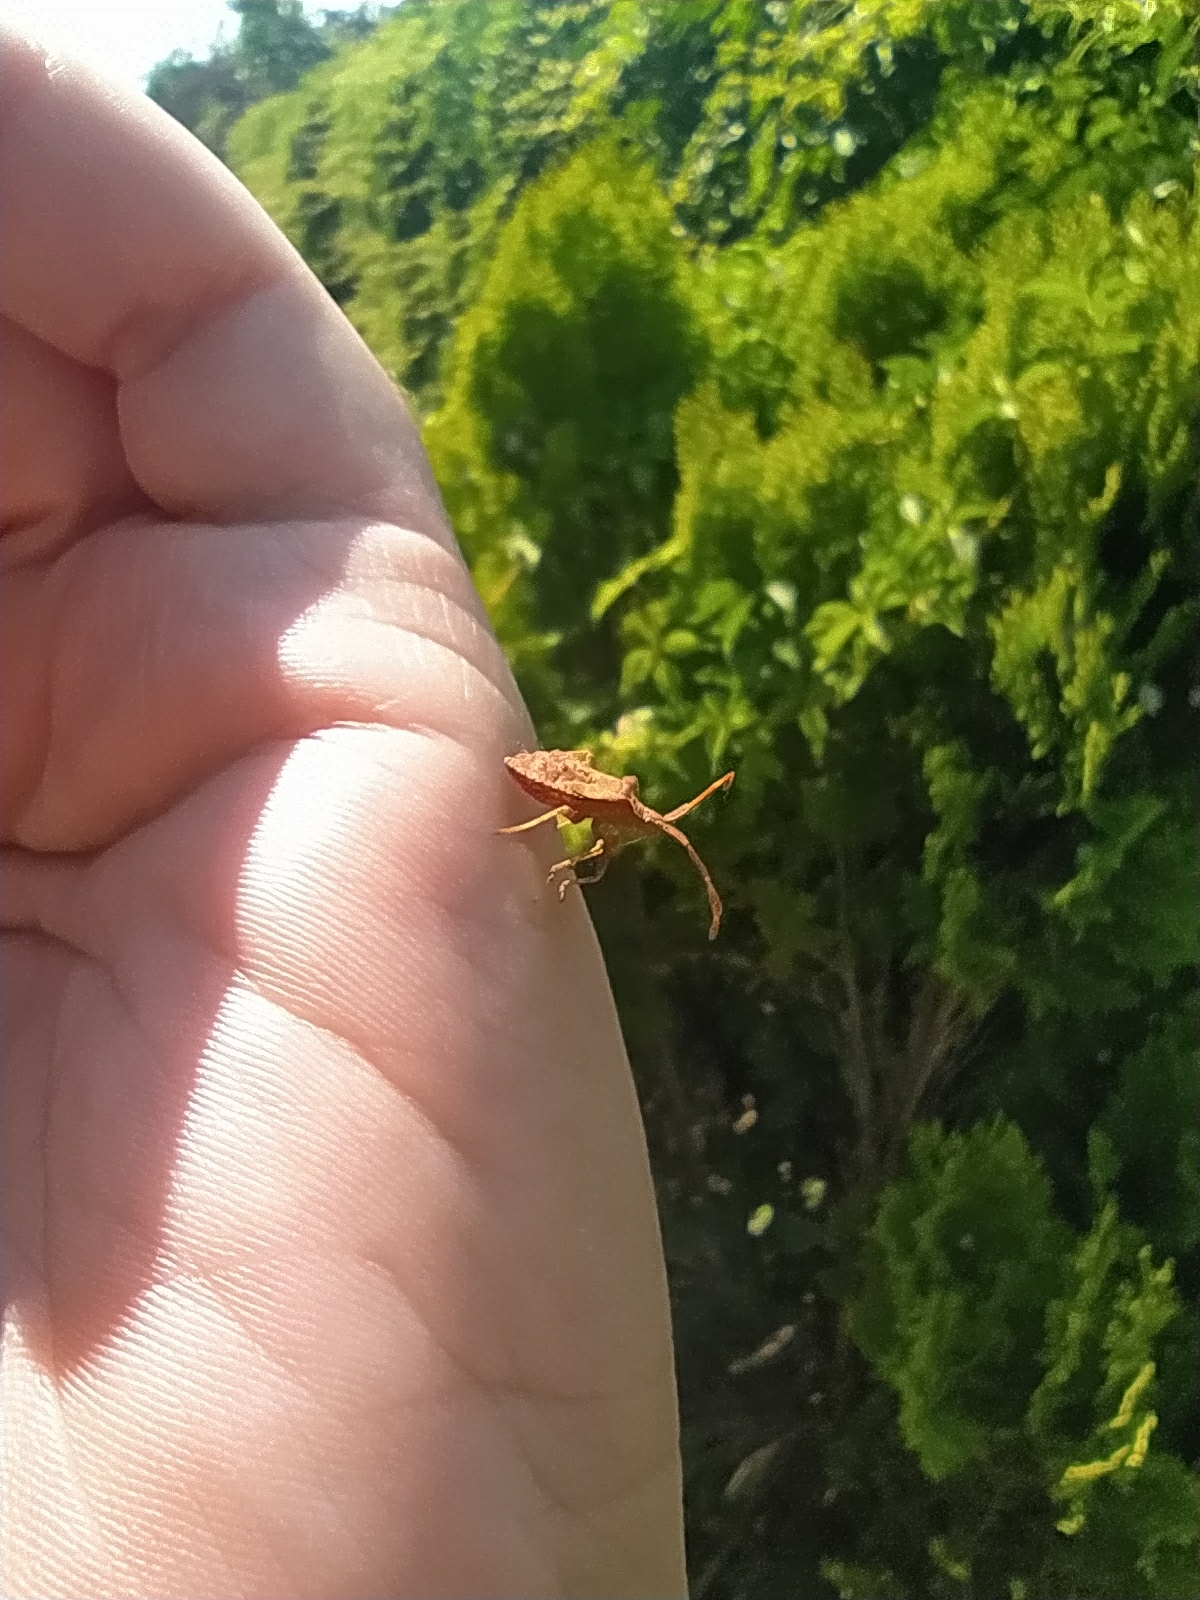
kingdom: Animalia
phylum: Arthropoda
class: Insecta
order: Hemiptera
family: Coreidae
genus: Coreus
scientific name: Coreus marginatus
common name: Dock bug
